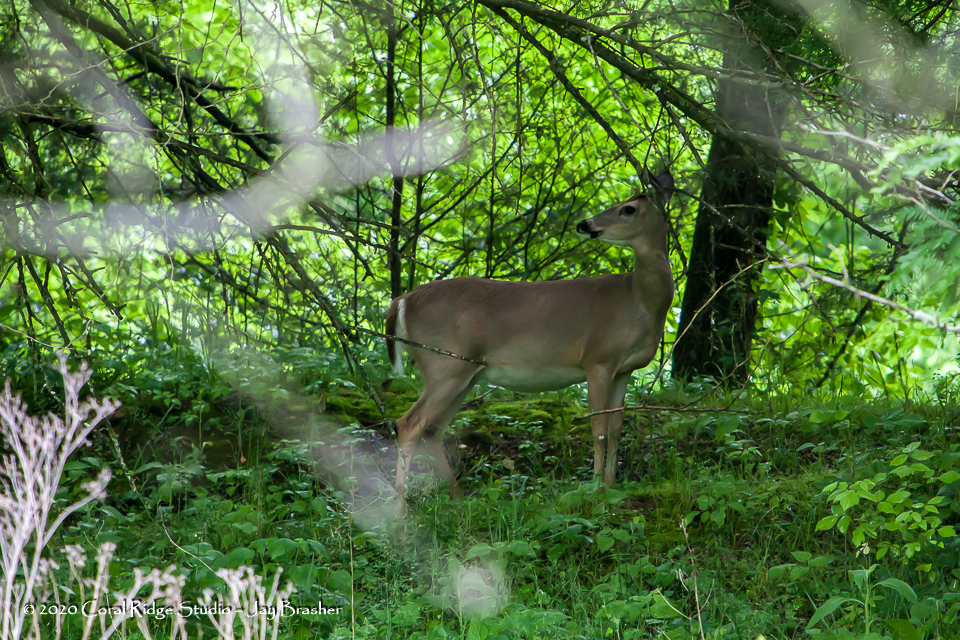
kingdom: Animalia
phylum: Chordata
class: Mammalia
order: Artiodactyla
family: Cervidae
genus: Odocoileus
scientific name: Odocoileus virginianus
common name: White-tailed deer
